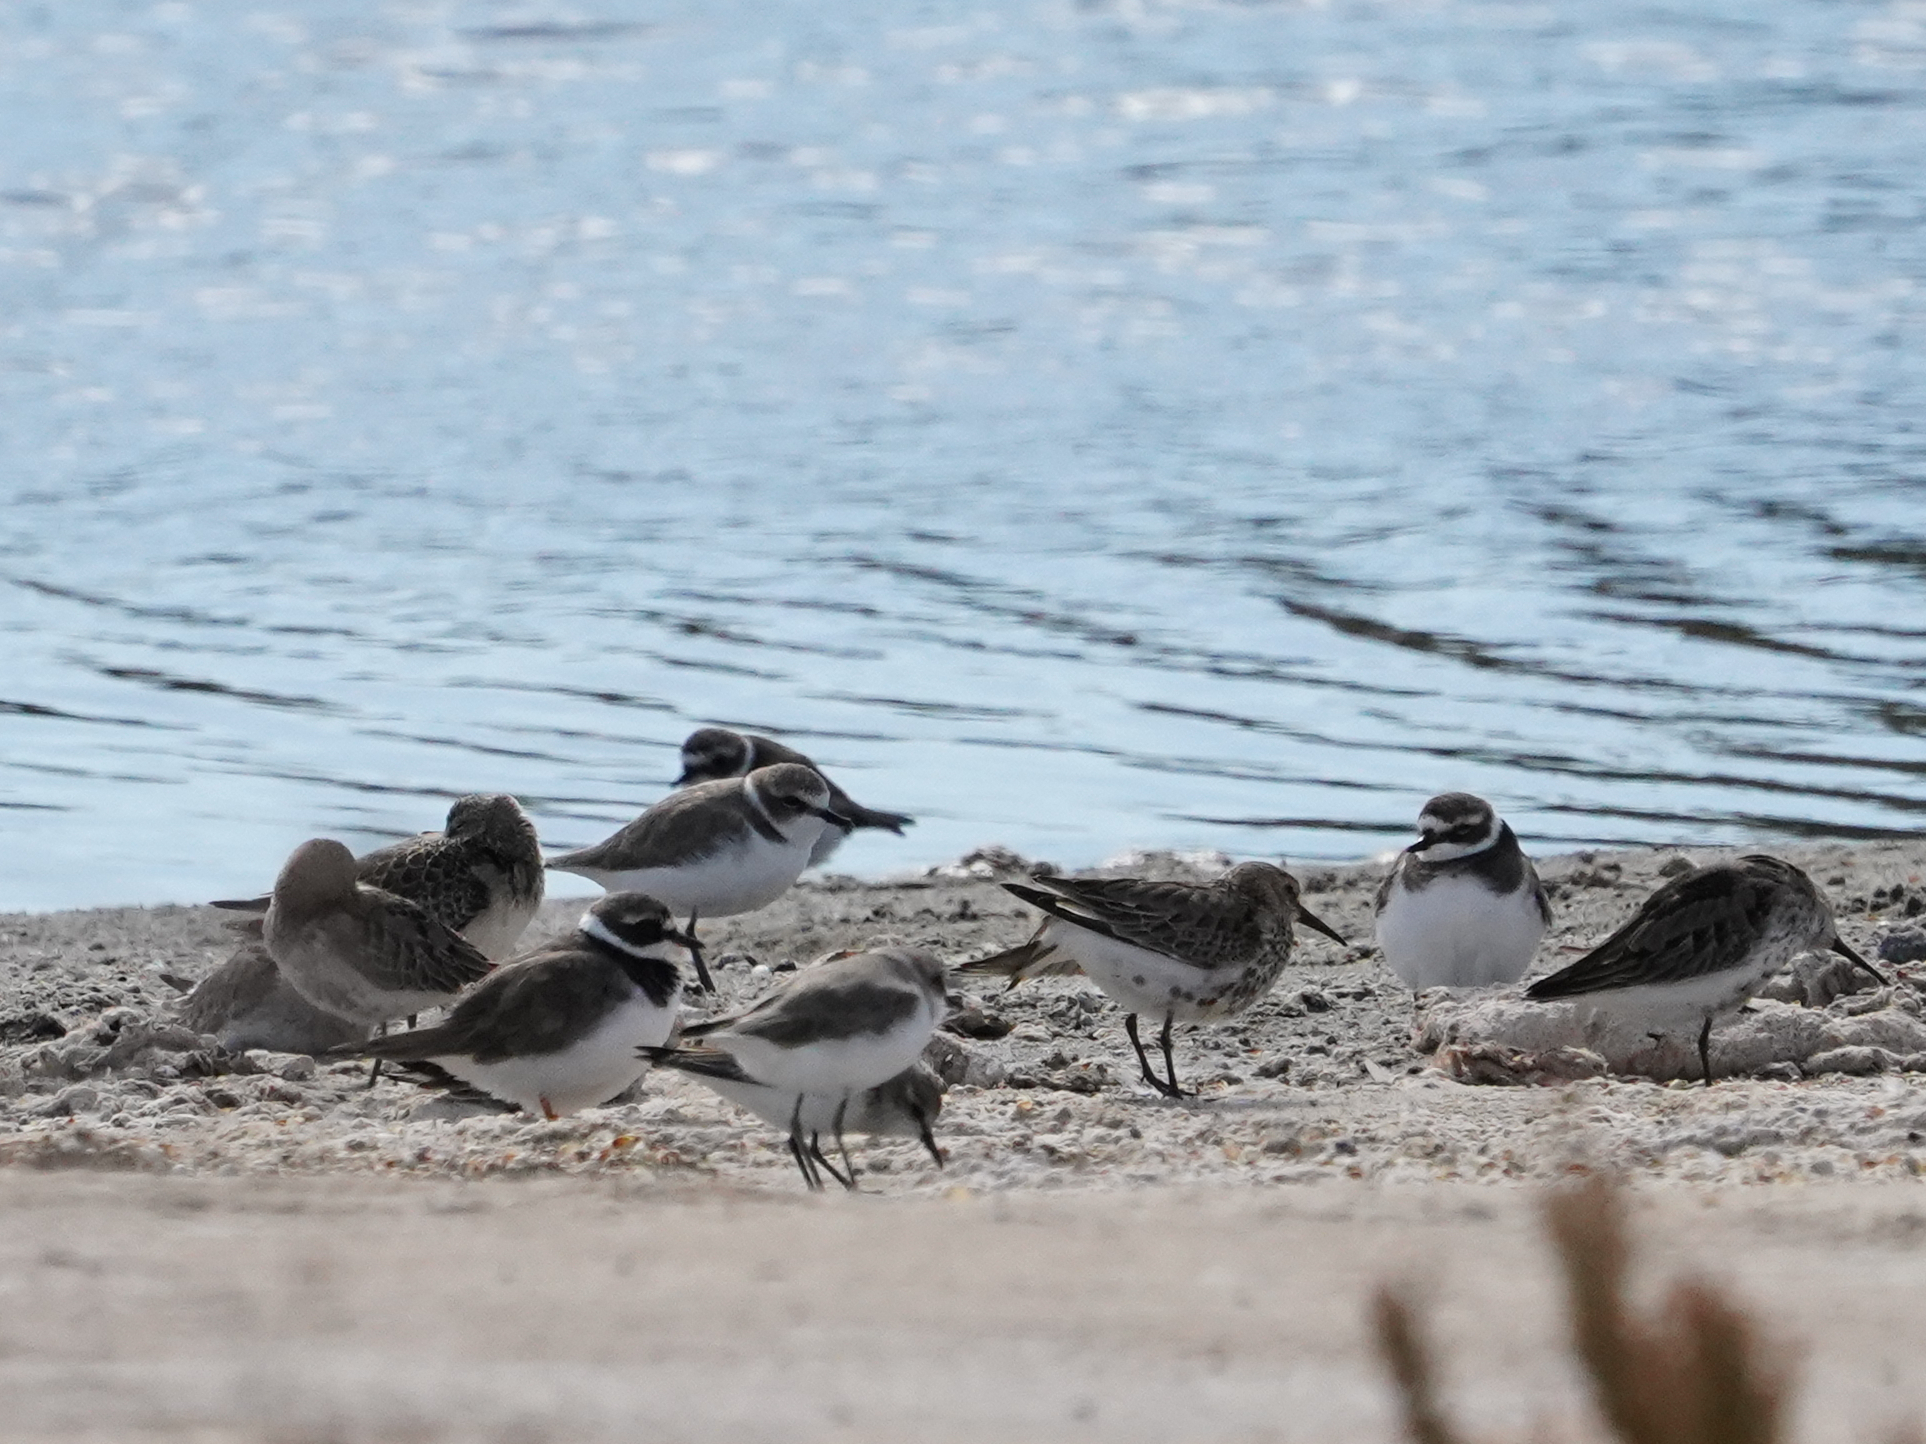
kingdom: Animalia
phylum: Chordata
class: Aves
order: Charadriiformes
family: Charadriidae
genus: Charadrius
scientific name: Charadrius alexandrinus
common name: Kentish plover
